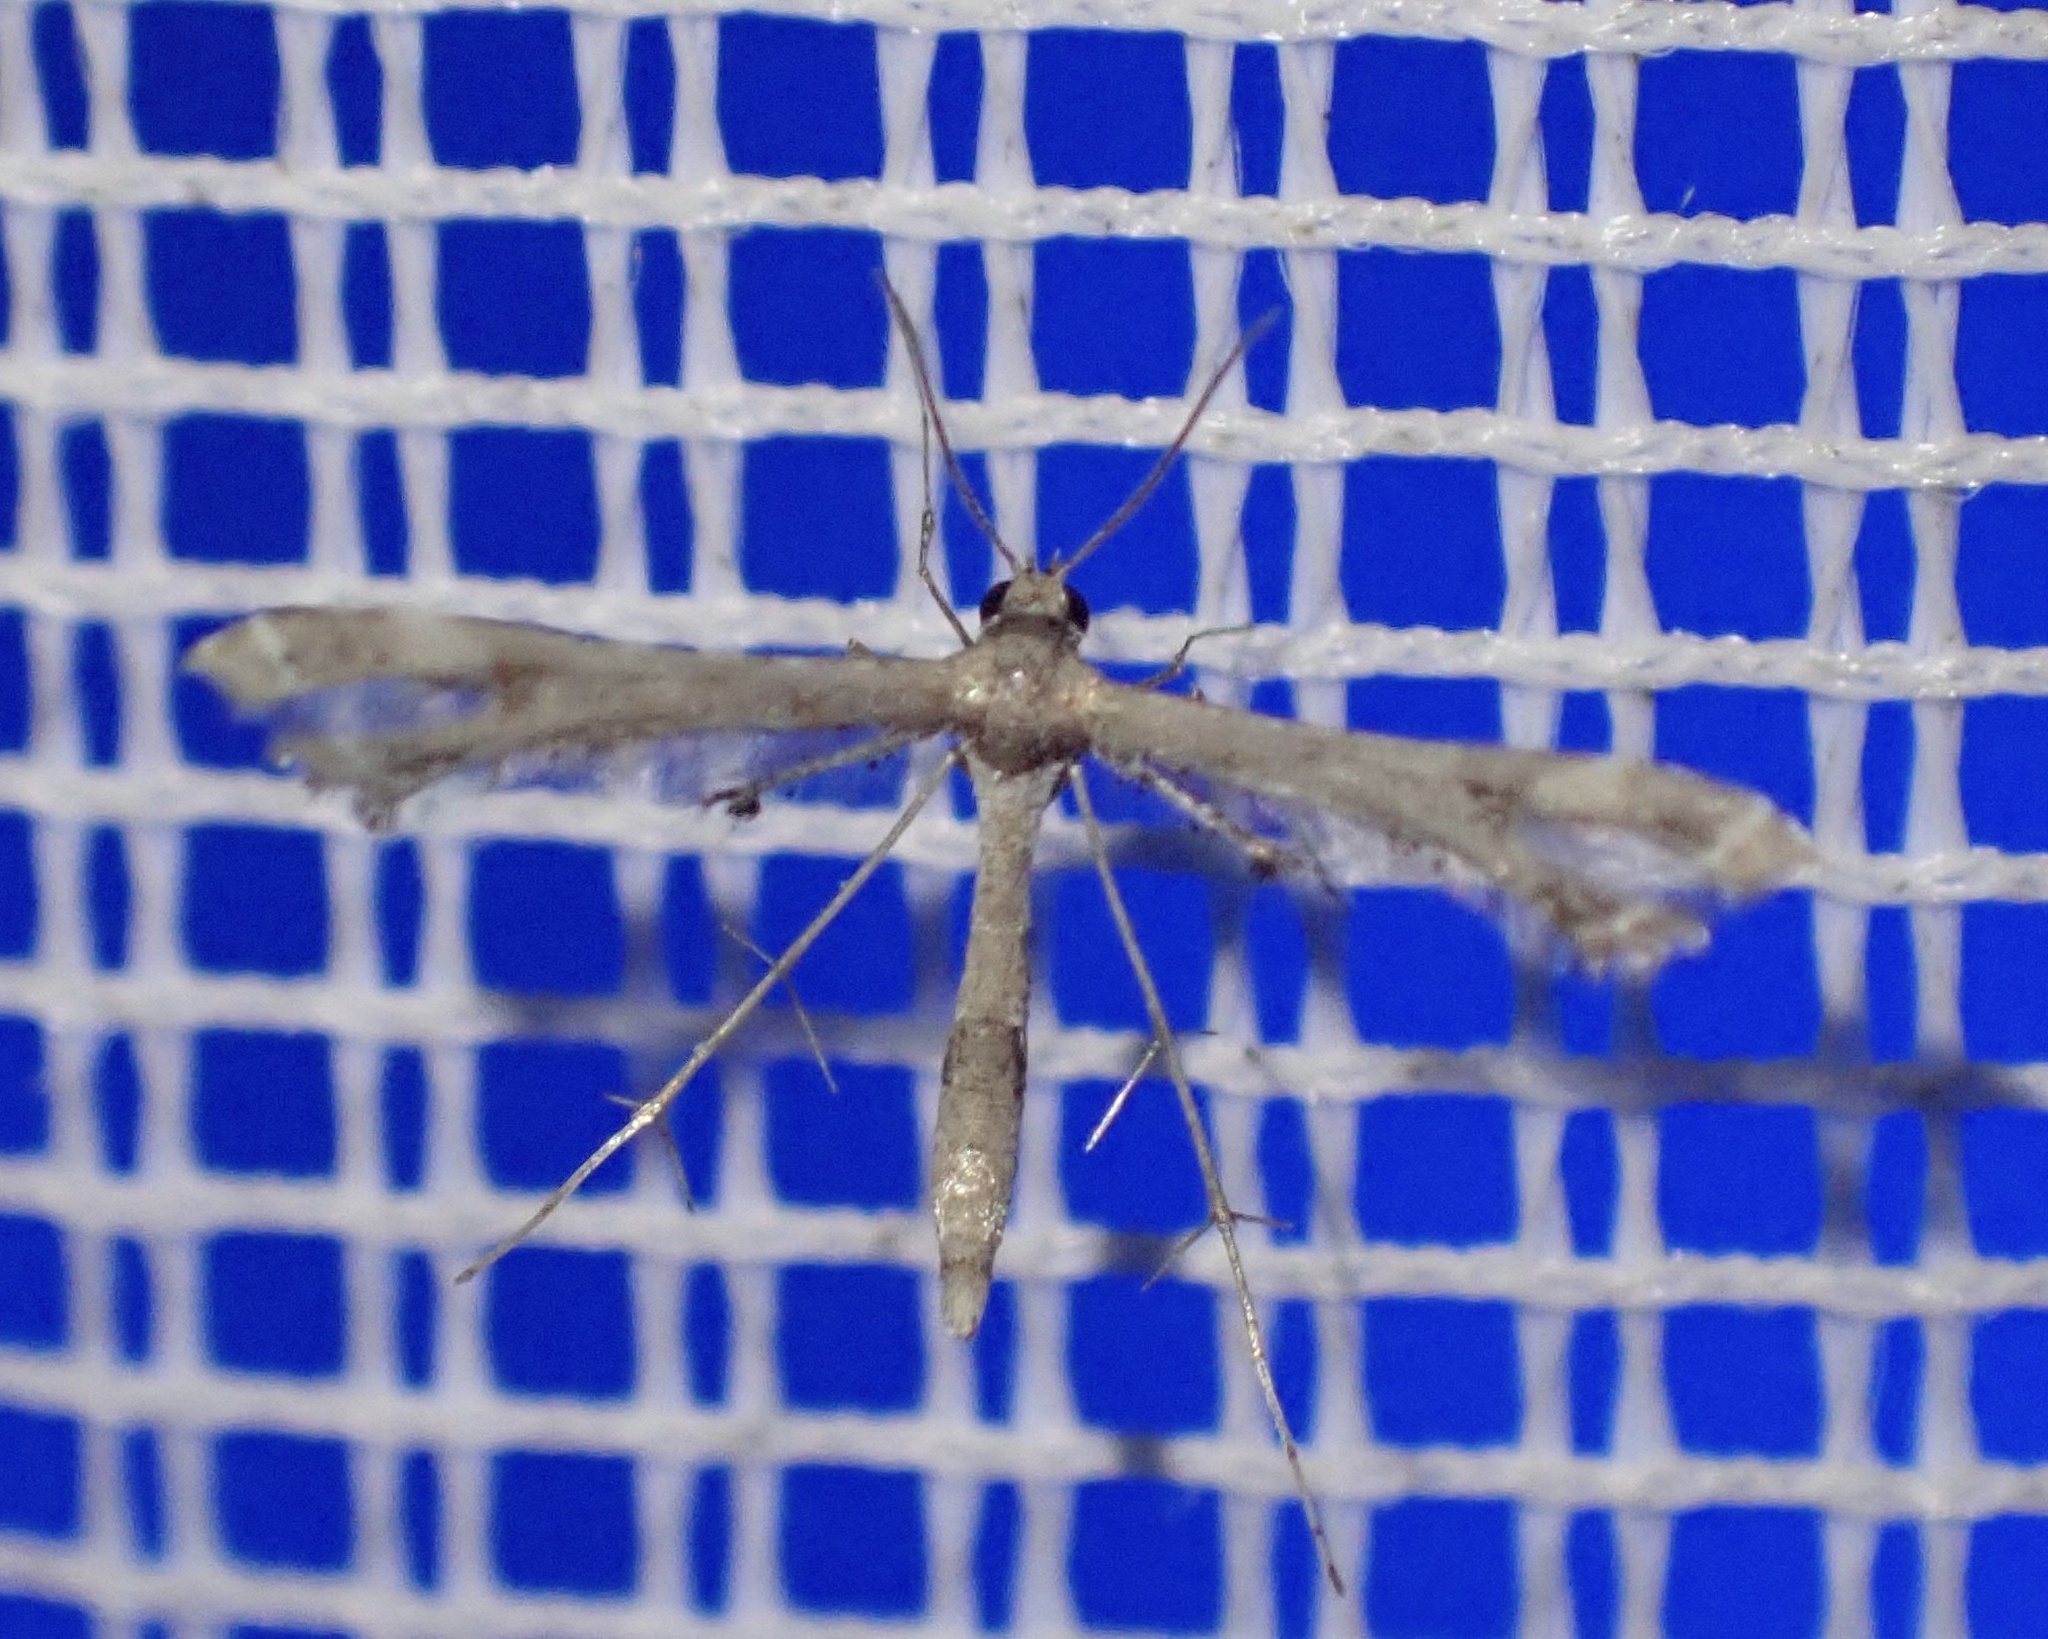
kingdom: Animalia
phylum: Arthropoda
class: Insecta
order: Lepidoptera
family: Pterophoridae
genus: Lantanophaga
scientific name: Lantanophaga pusillidactylus
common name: Moth
